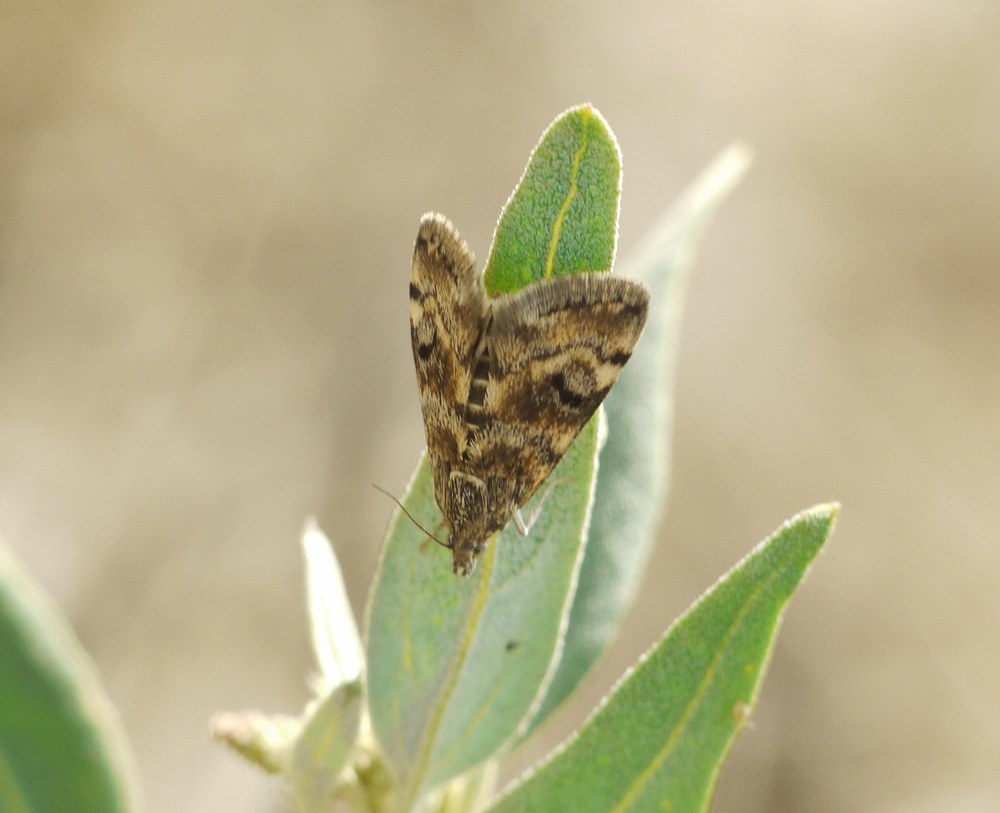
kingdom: Animalia
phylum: Arthropoda
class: Insecta
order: Lepidoptera
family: Crambidae
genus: Noctuelia
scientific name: Noctuelia Aporodes floralis
